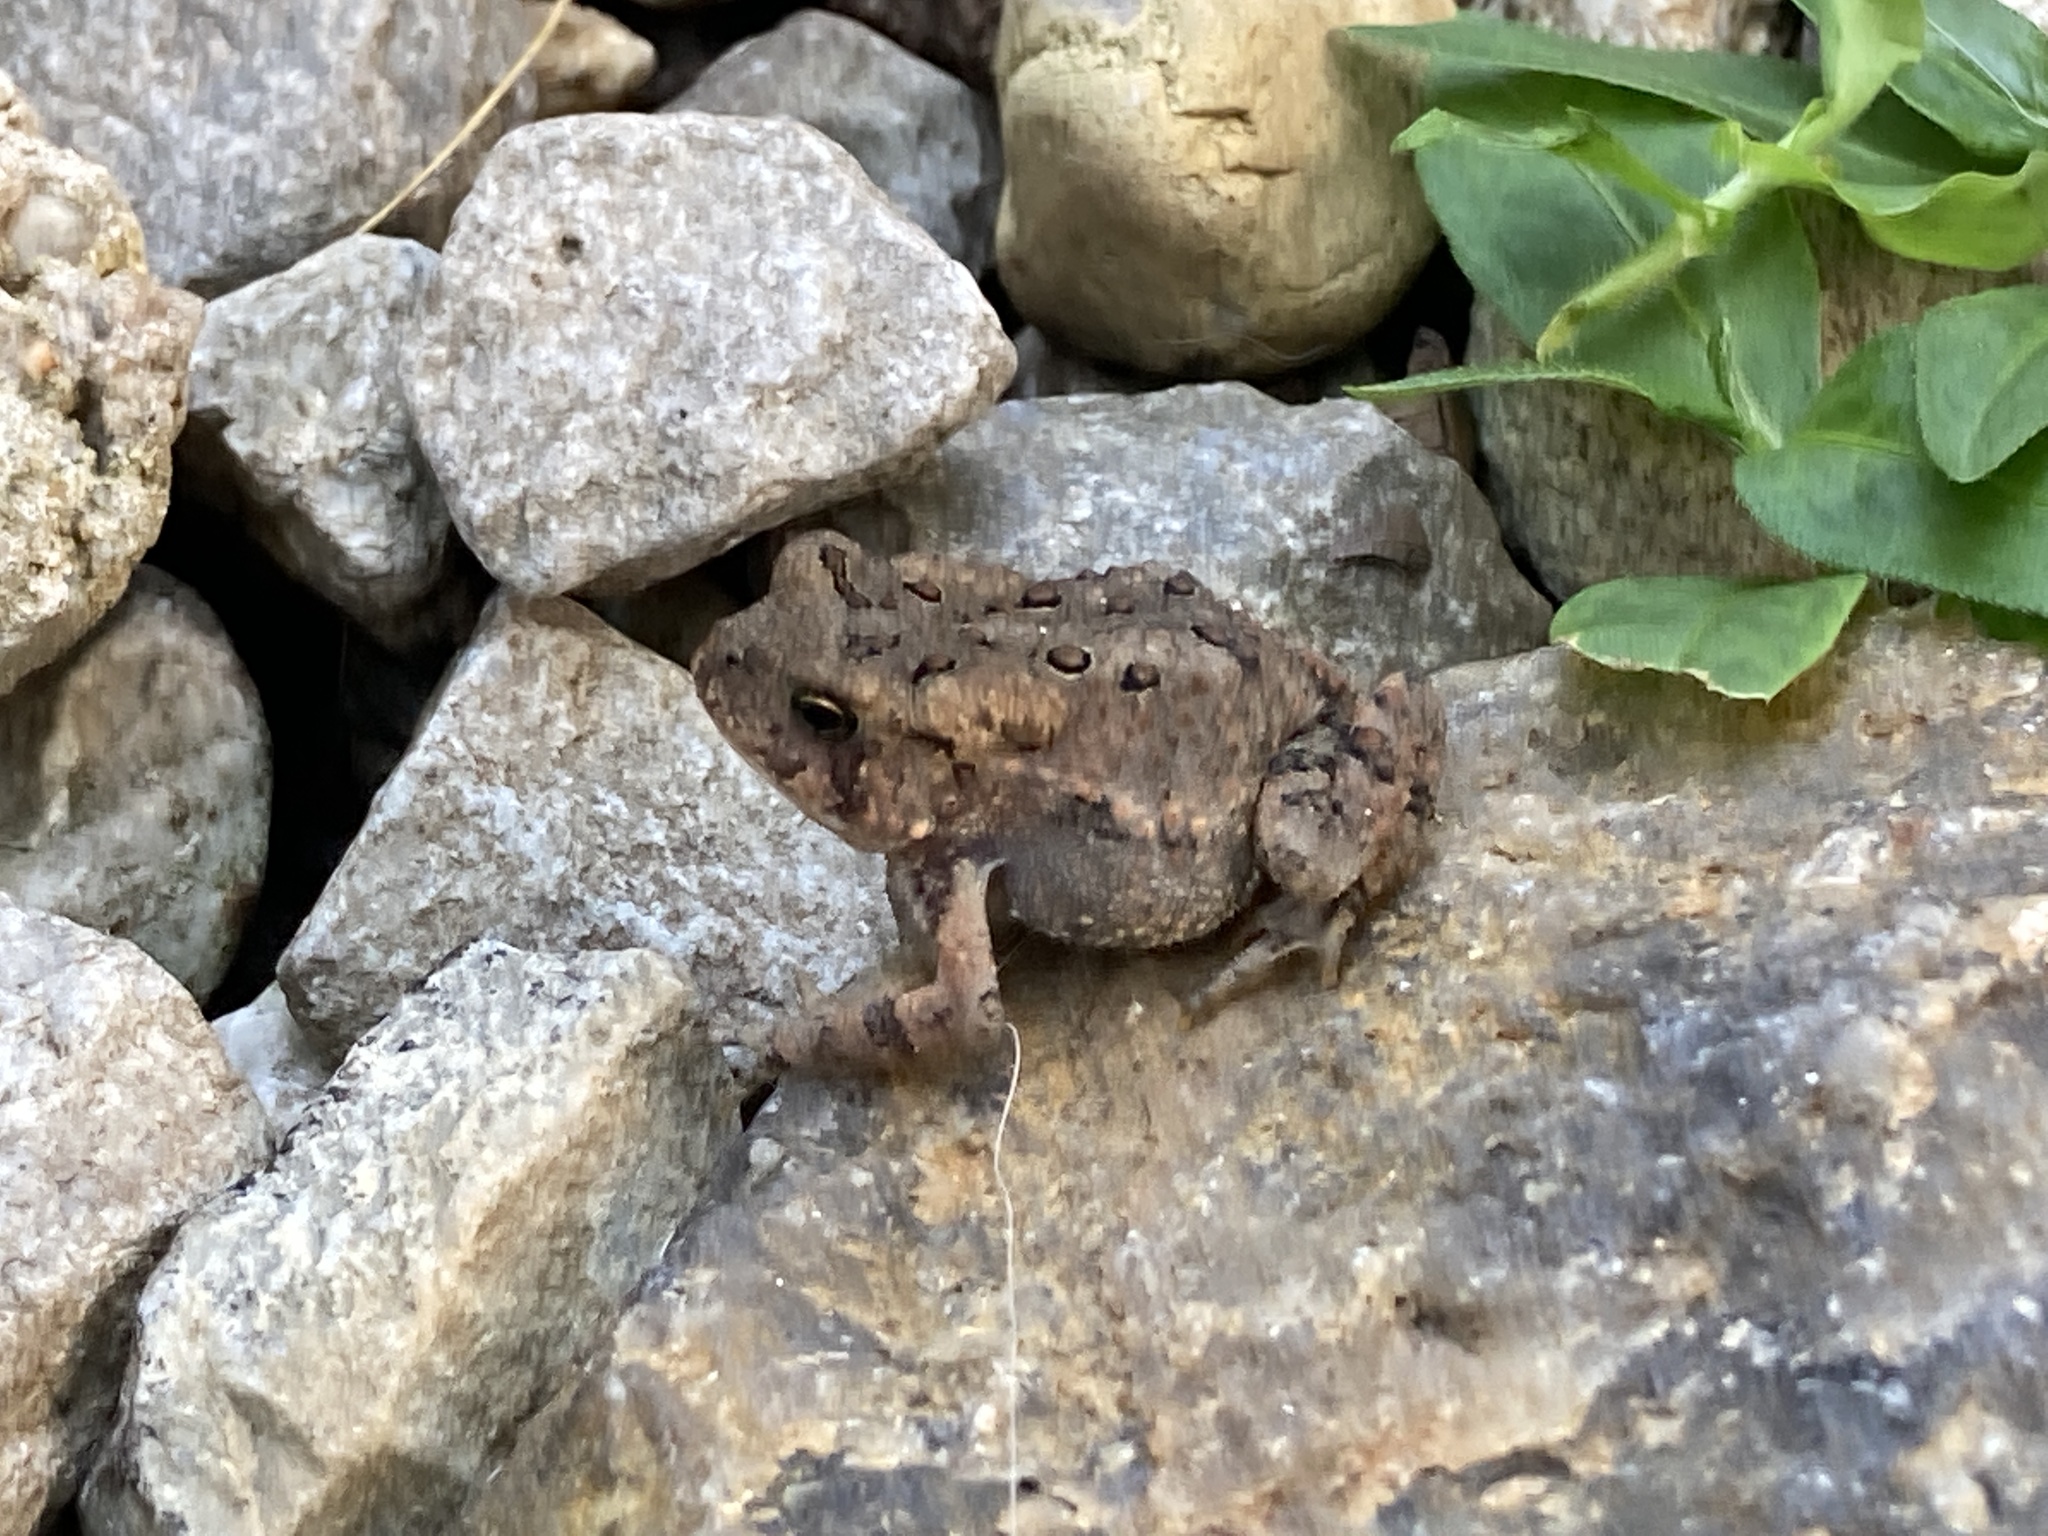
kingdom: Animalia
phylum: Chordata
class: Amphibia
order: Anura
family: Bufonidae
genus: Anaxyrus
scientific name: Anaxyrus americanus
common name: American toad
